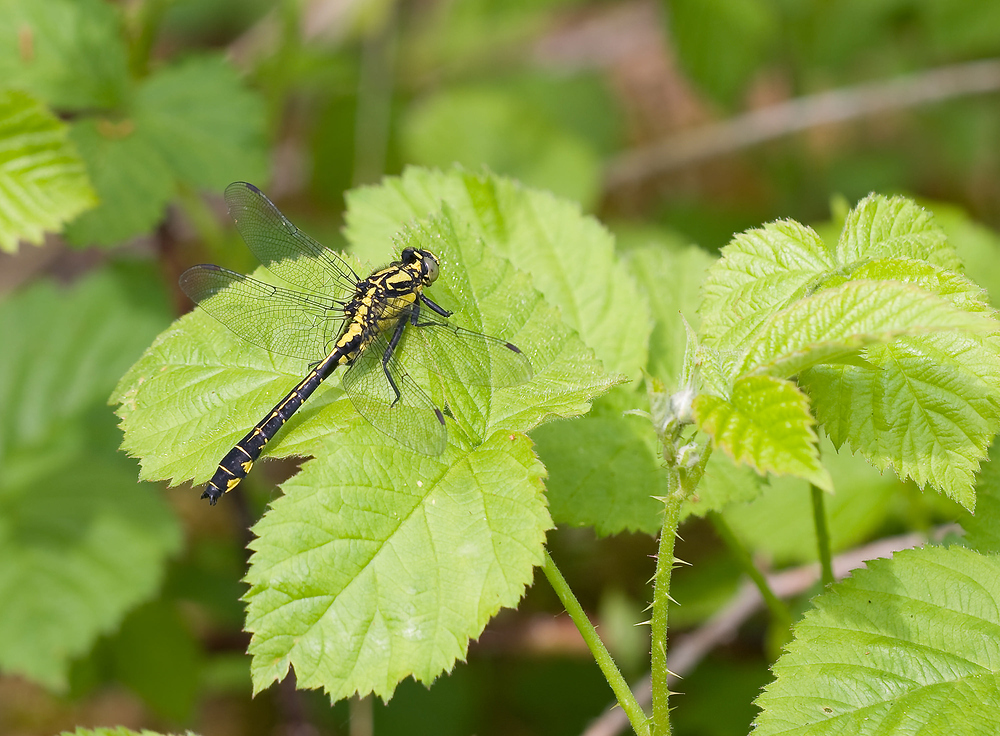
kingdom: Animalia
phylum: Arthropoda
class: Insecta
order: Odonata
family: Gomphidae
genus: Gomphus
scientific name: Gomphus vulgatissimus
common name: Club-tailed dragonfly
